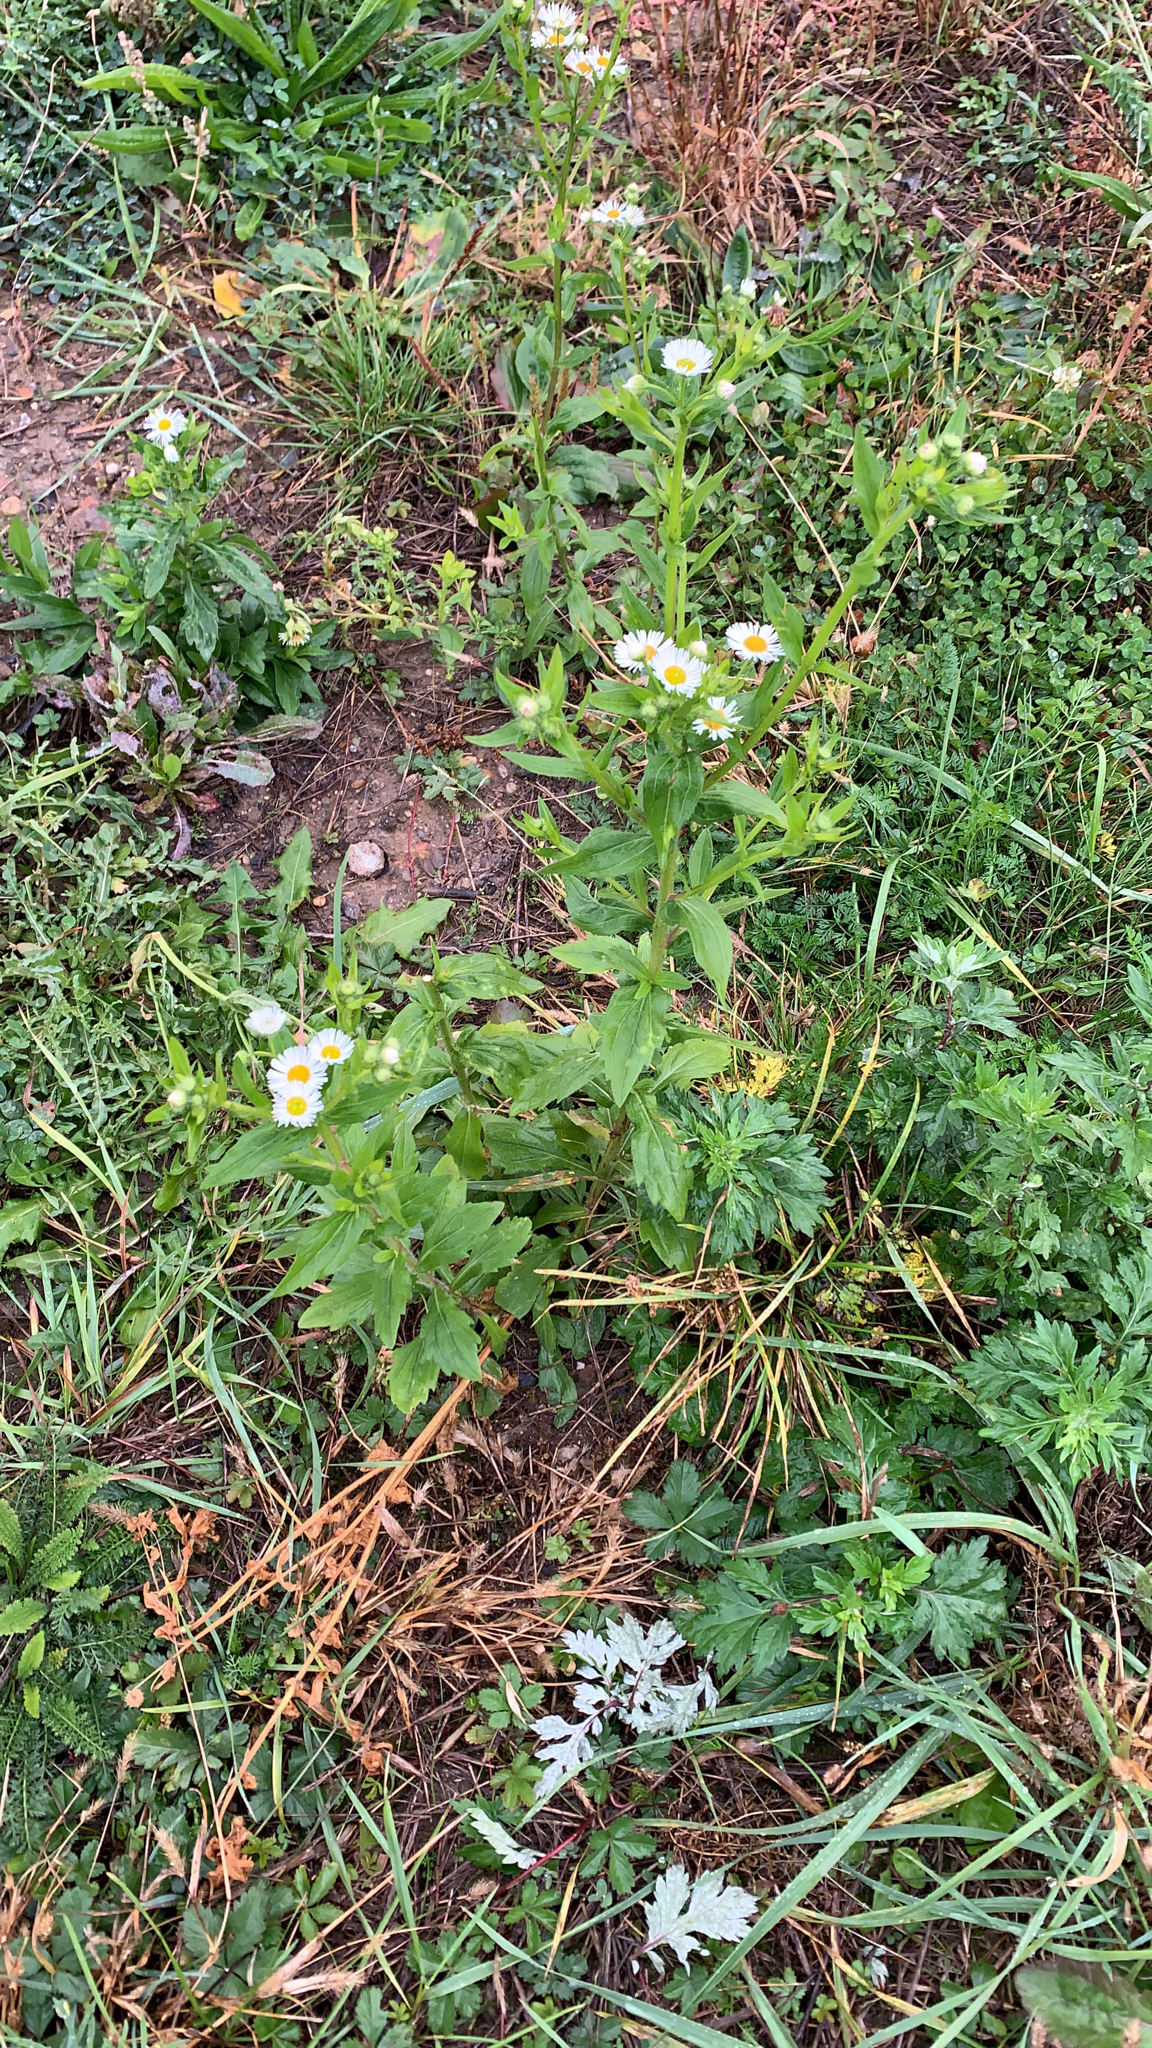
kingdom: Plantae
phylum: Tracheophyta
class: Magnoliopsida
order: Asterales
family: Asteraceae
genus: Erigeron
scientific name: Erigeron annuus
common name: Tall fleabane
